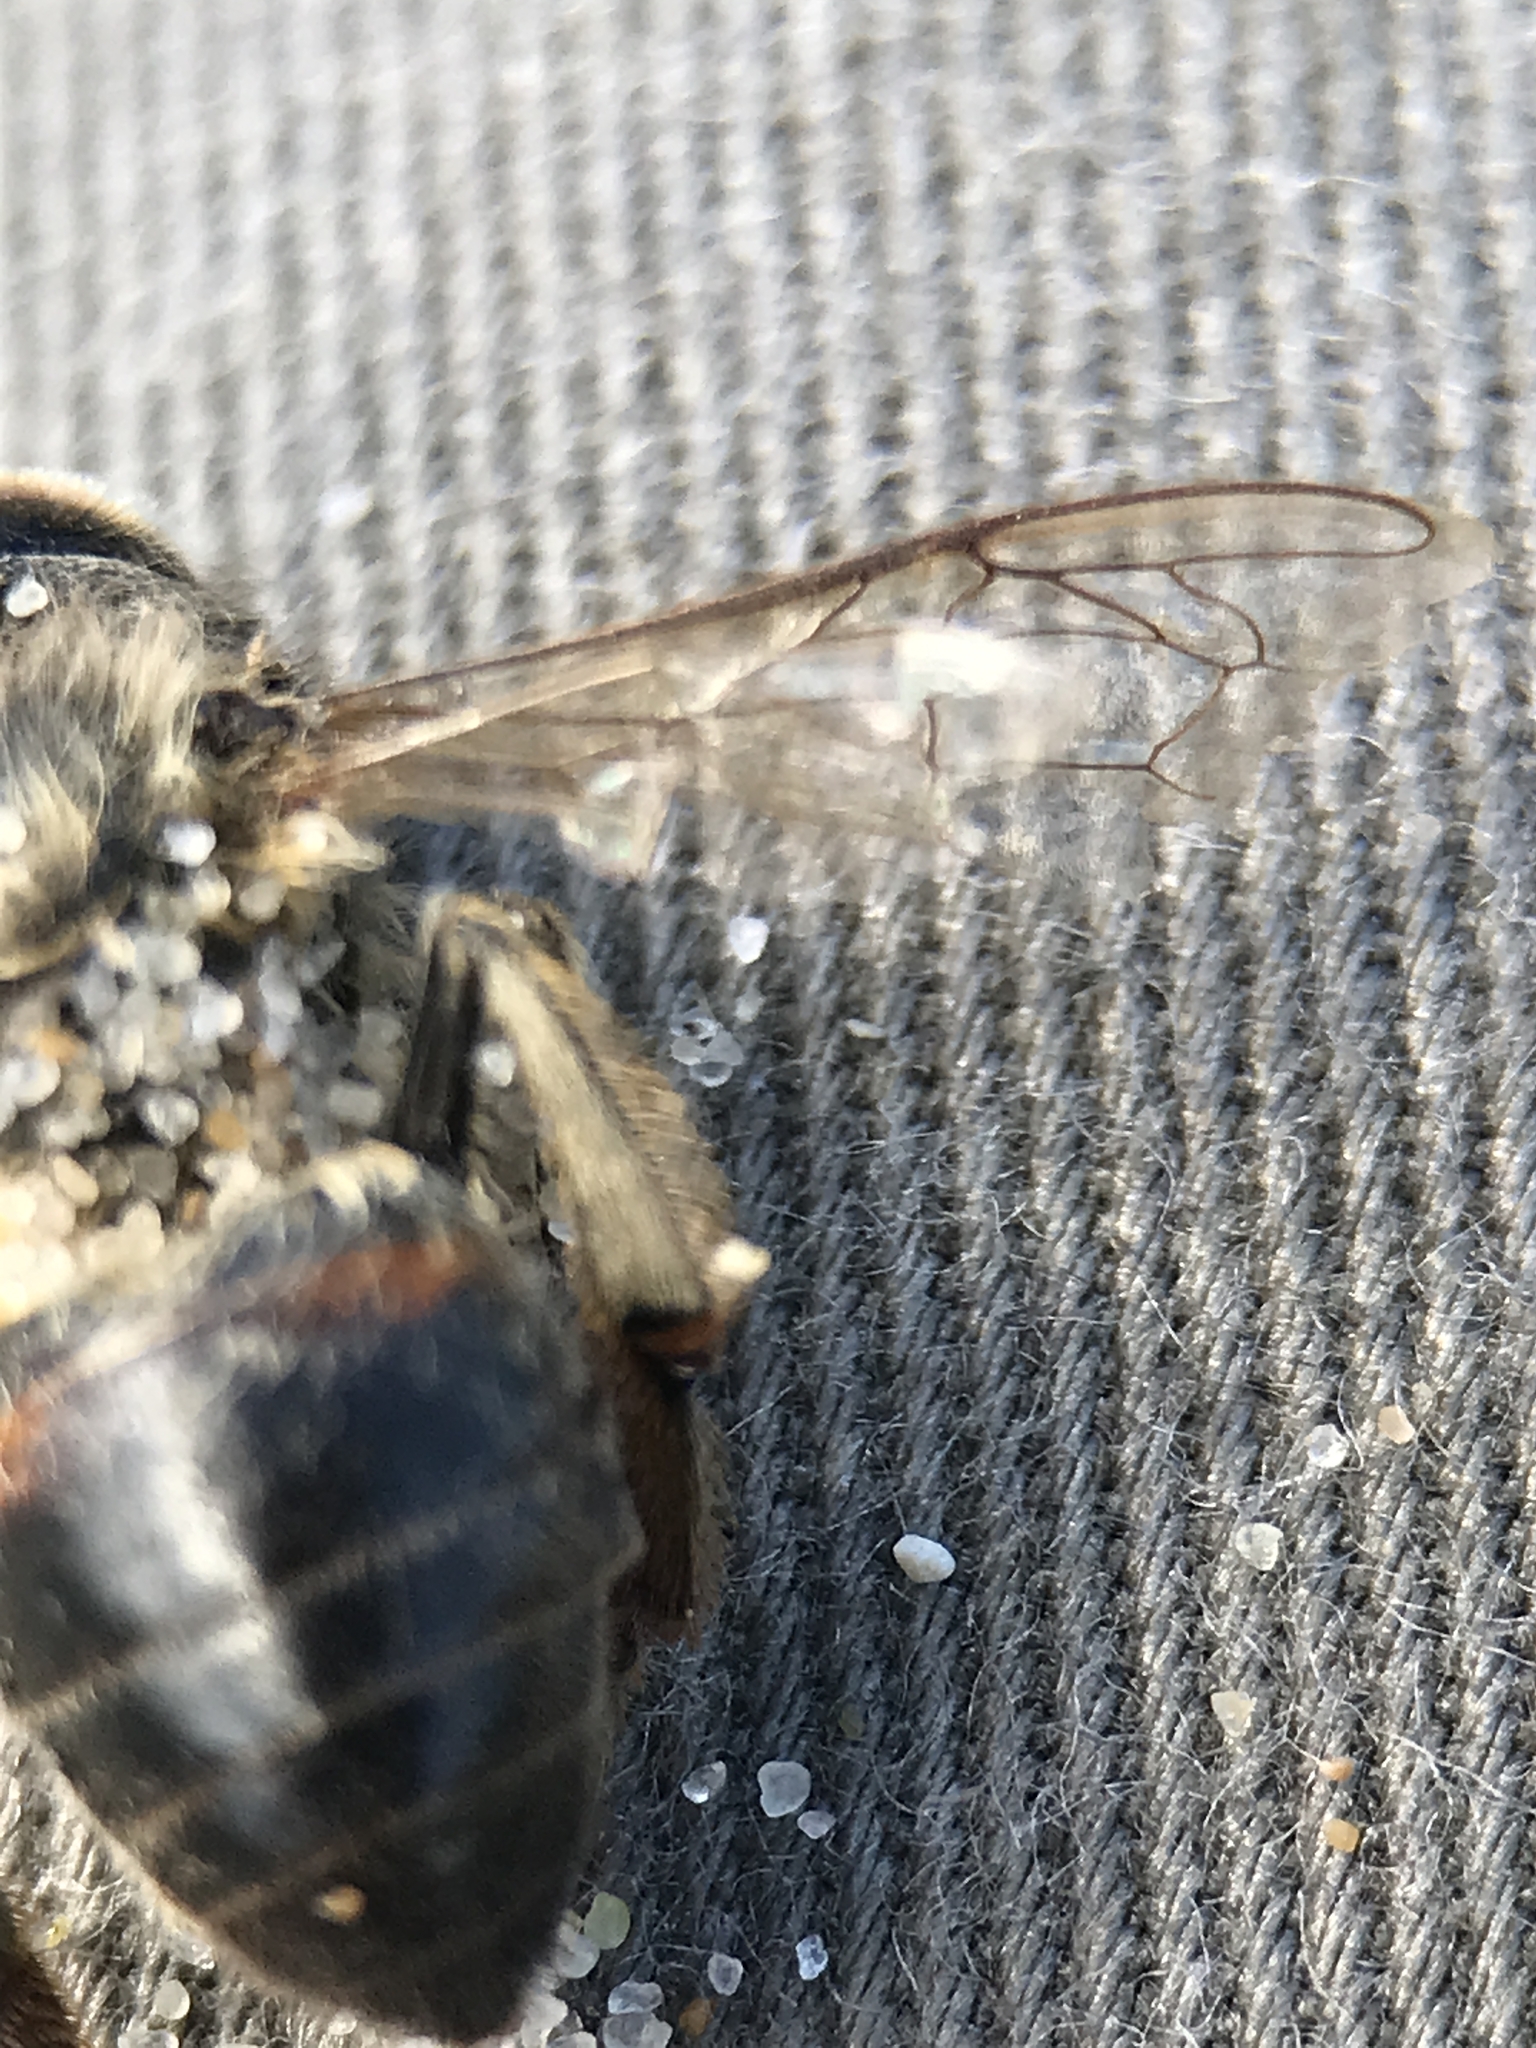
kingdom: Animalia
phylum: Arthropoda
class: Insecta
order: Hymenoptera
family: Apidae
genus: Apis
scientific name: Apis mellifera
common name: Honey bee
